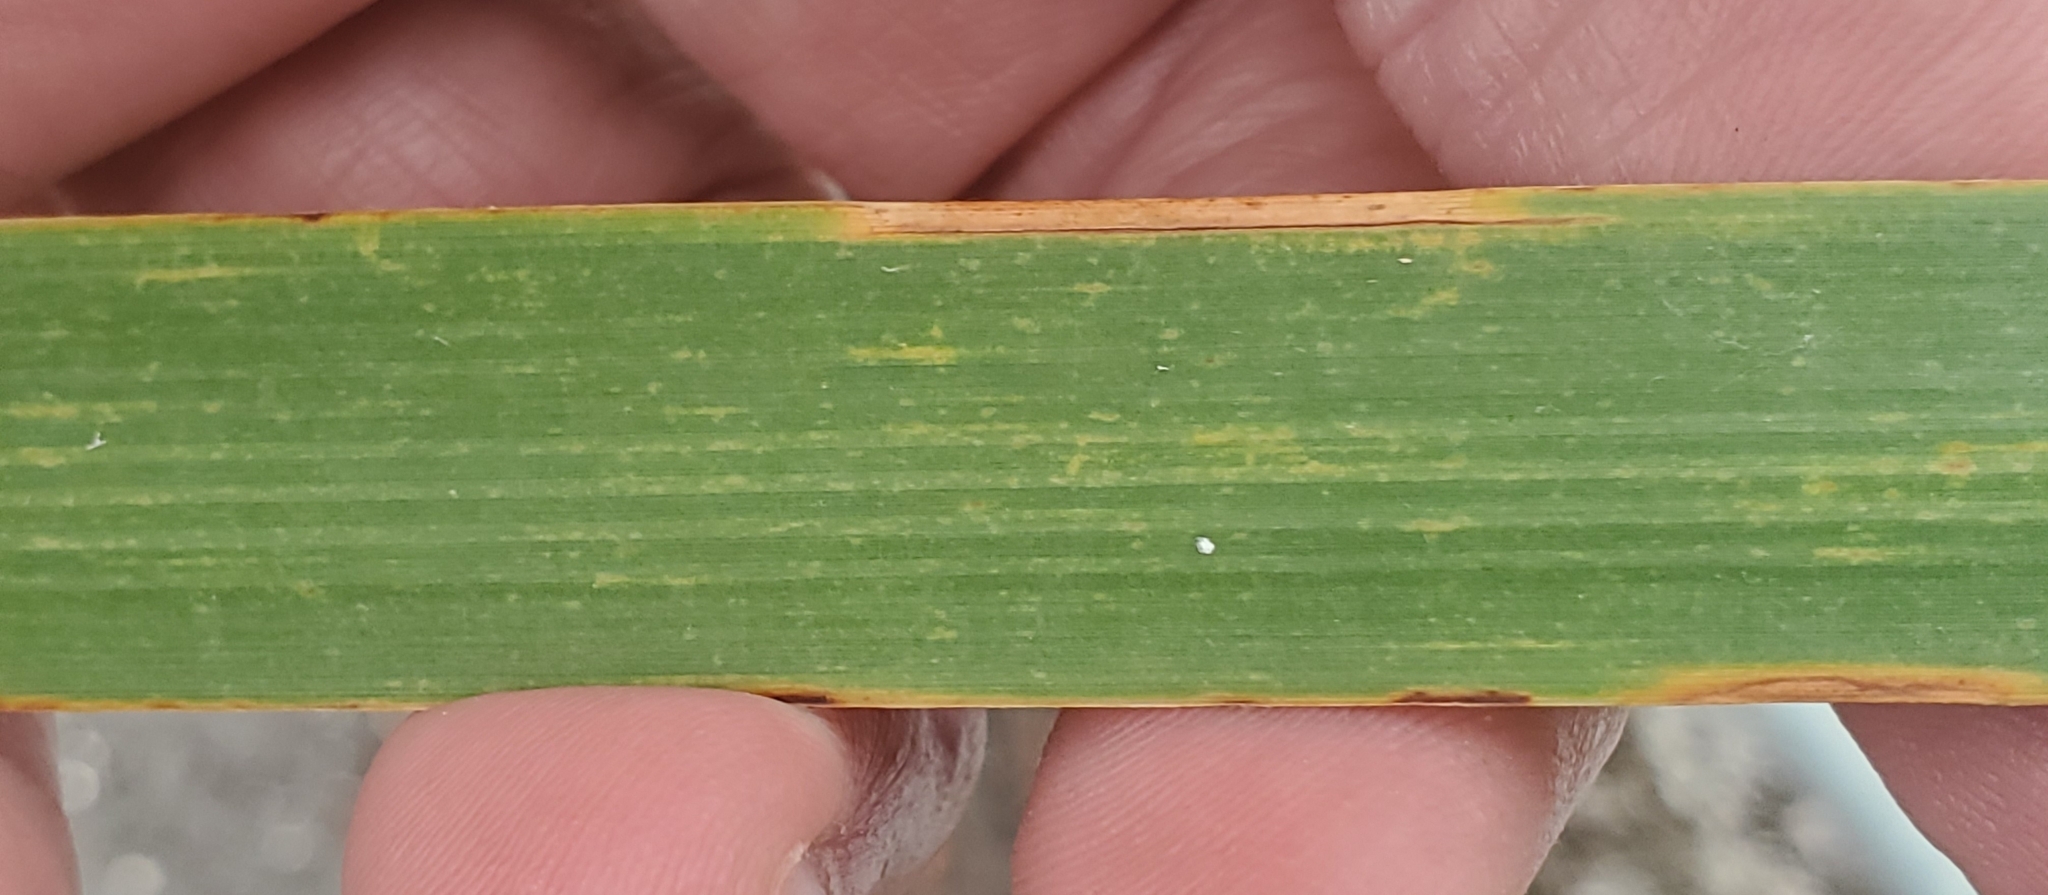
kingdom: Plantae
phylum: Tracheophyta
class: Liliopsida
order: Poales
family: Typhaceae
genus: Typha
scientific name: Typha domingensis
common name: Southern cattail
